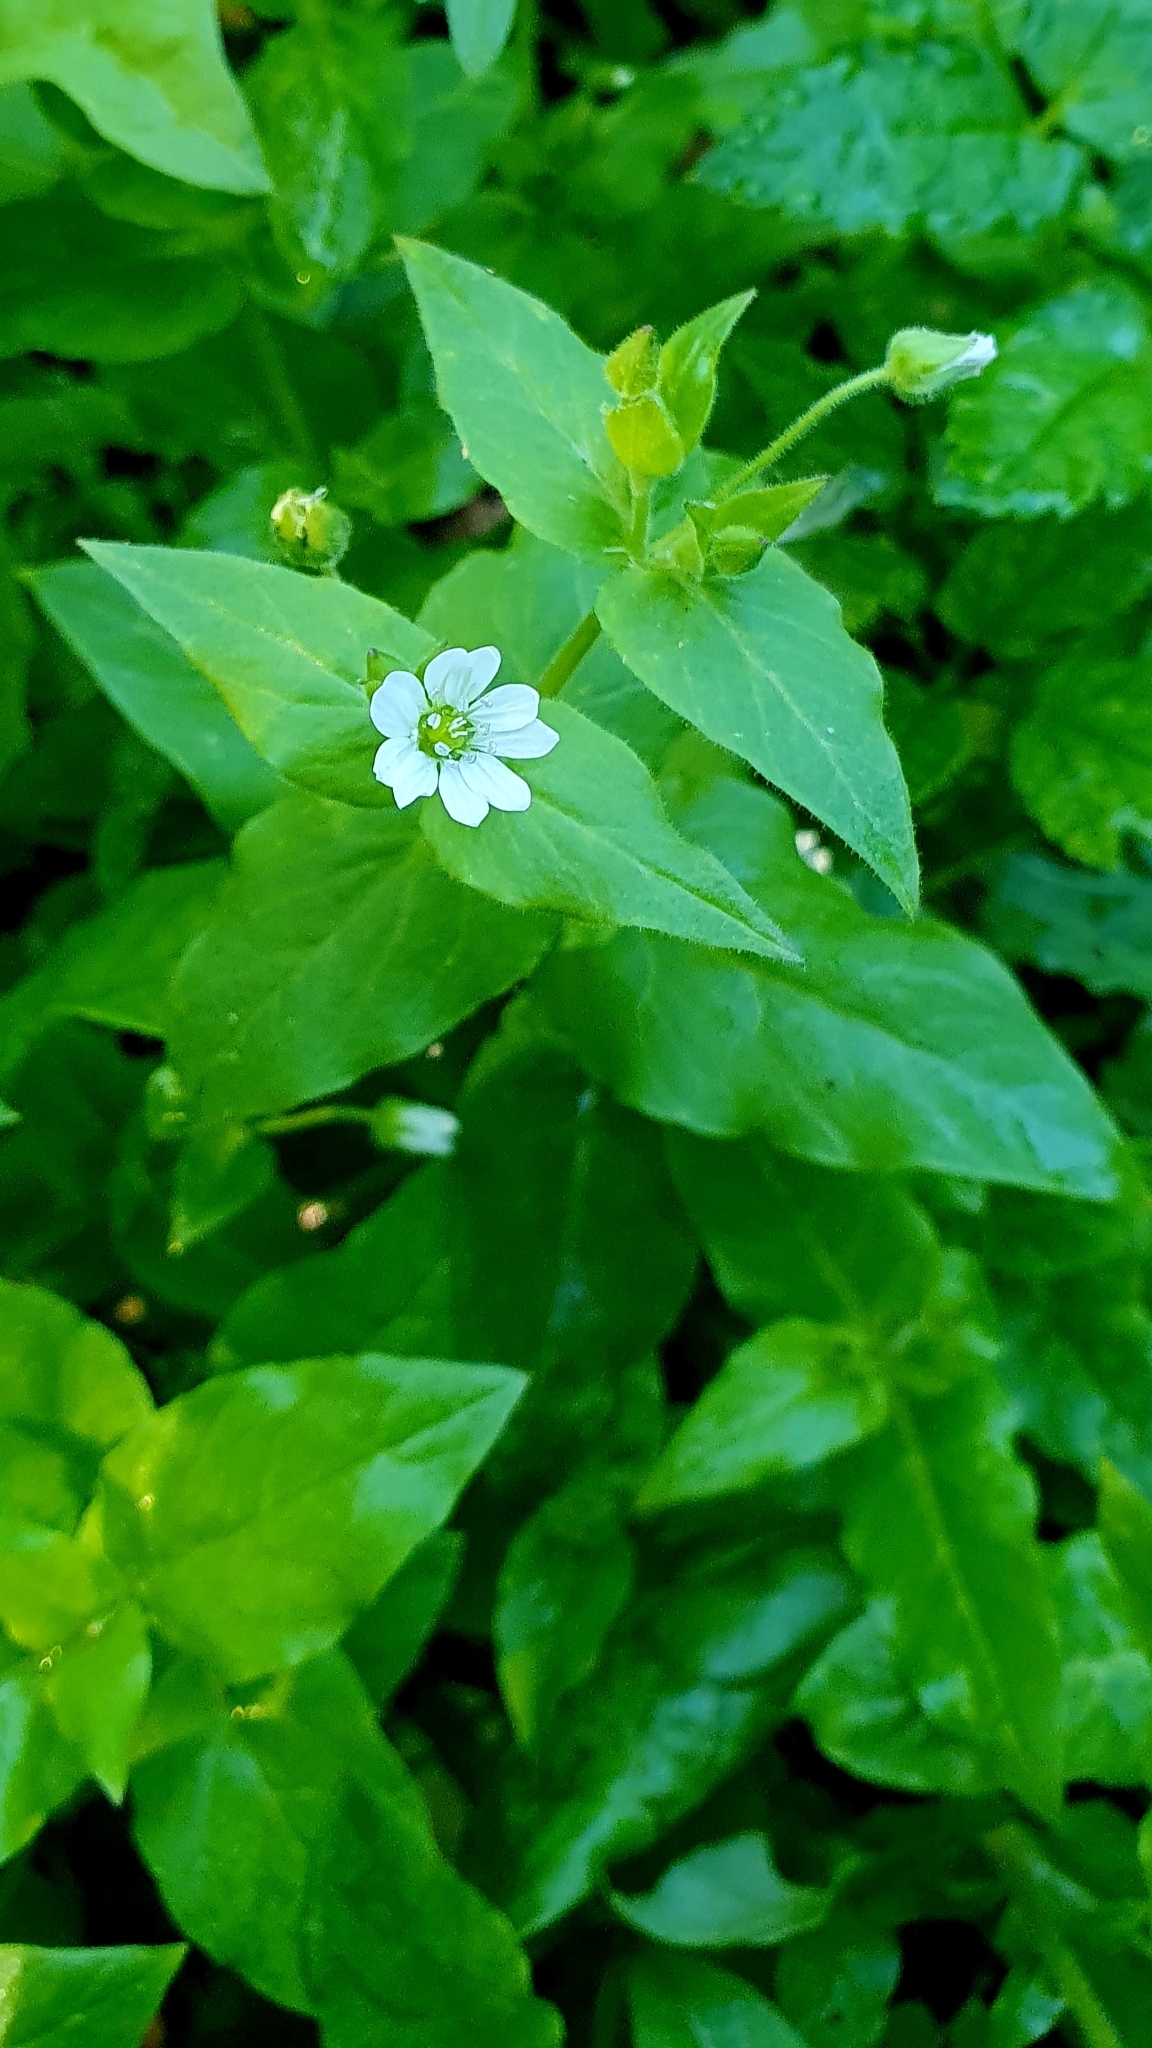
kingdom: Plantae
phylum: Tracheophyta
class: Magnoliopsida
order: Caryophyllales
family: Caryophyllaceae
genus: Stellaria
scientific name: Stellaria aquatica
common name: Water chickweed
